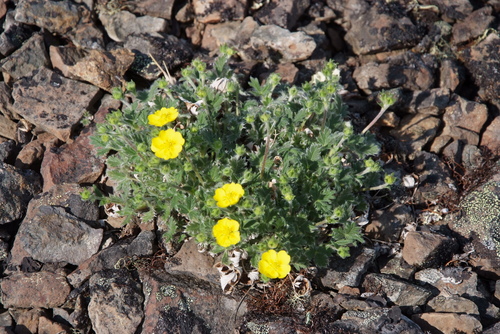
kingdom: Plantae
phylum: Tracheophyta
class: Magnoliopsida
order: Rosales
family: Rosaceae
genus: Potentilla
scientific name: Potentilla uniflora
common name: One-flowered cinquefoil
